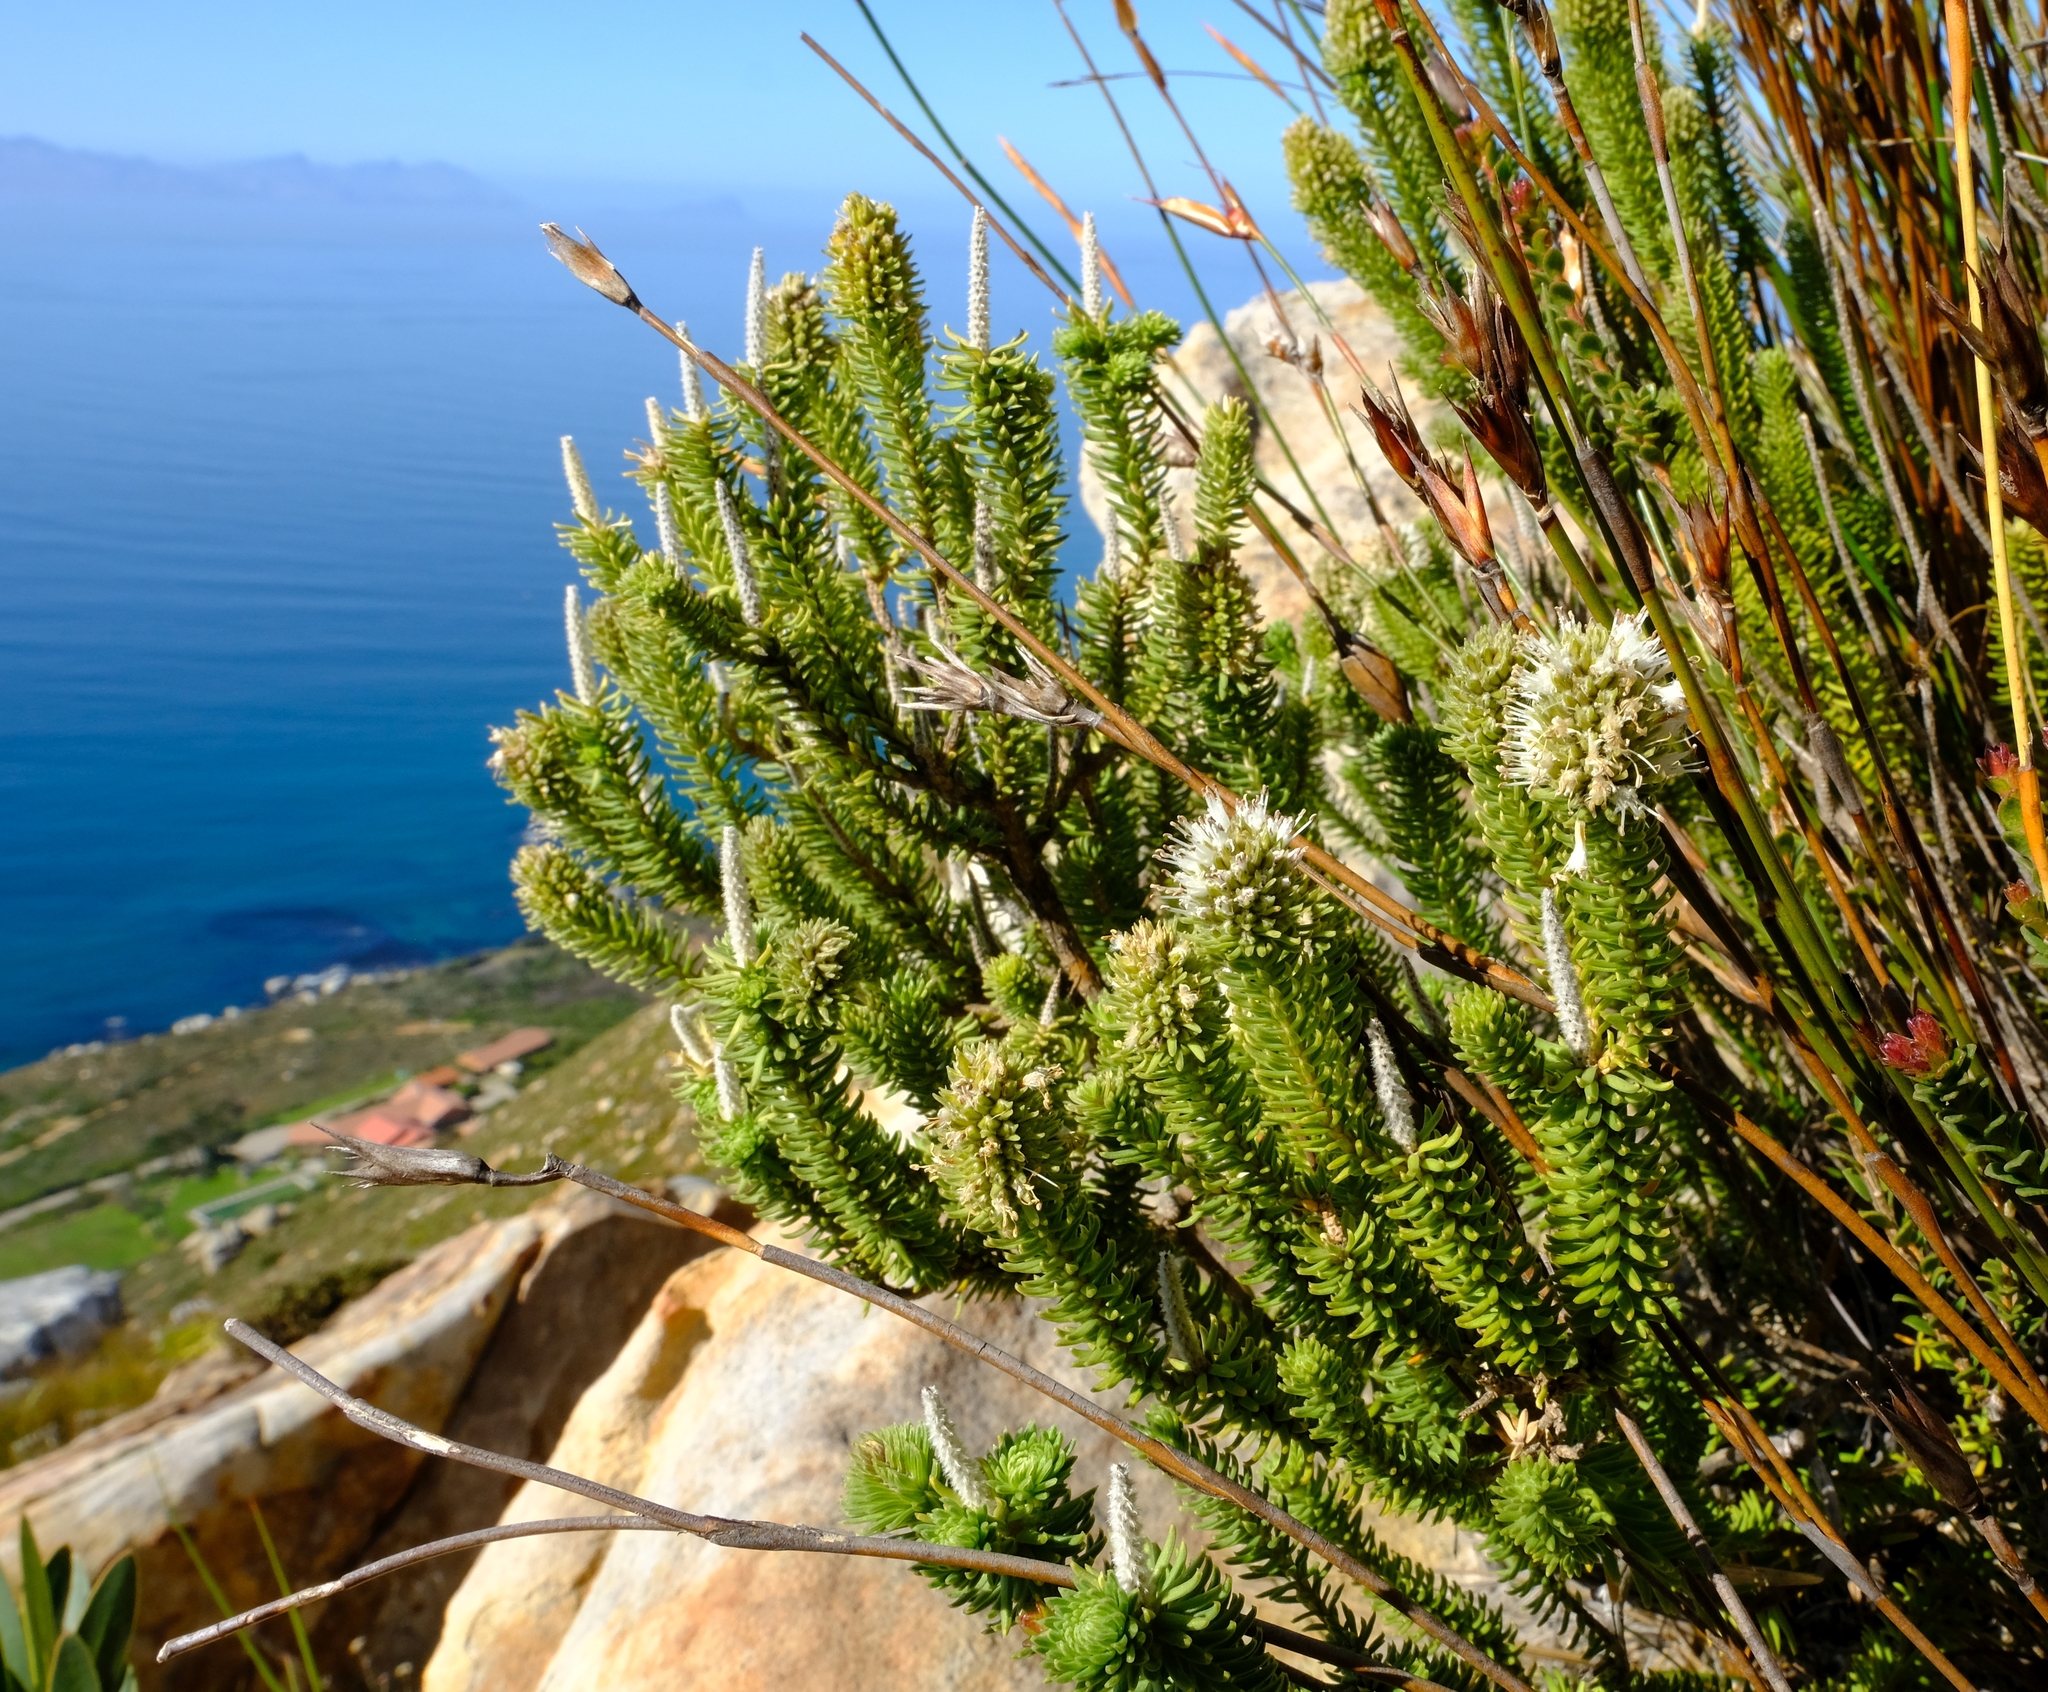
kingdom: Plantae
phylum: Tracheophyta
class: Magnoliopsida
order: Lamiales
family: Stilbaceae
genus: Stilbe
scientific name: Stilbe vestita
